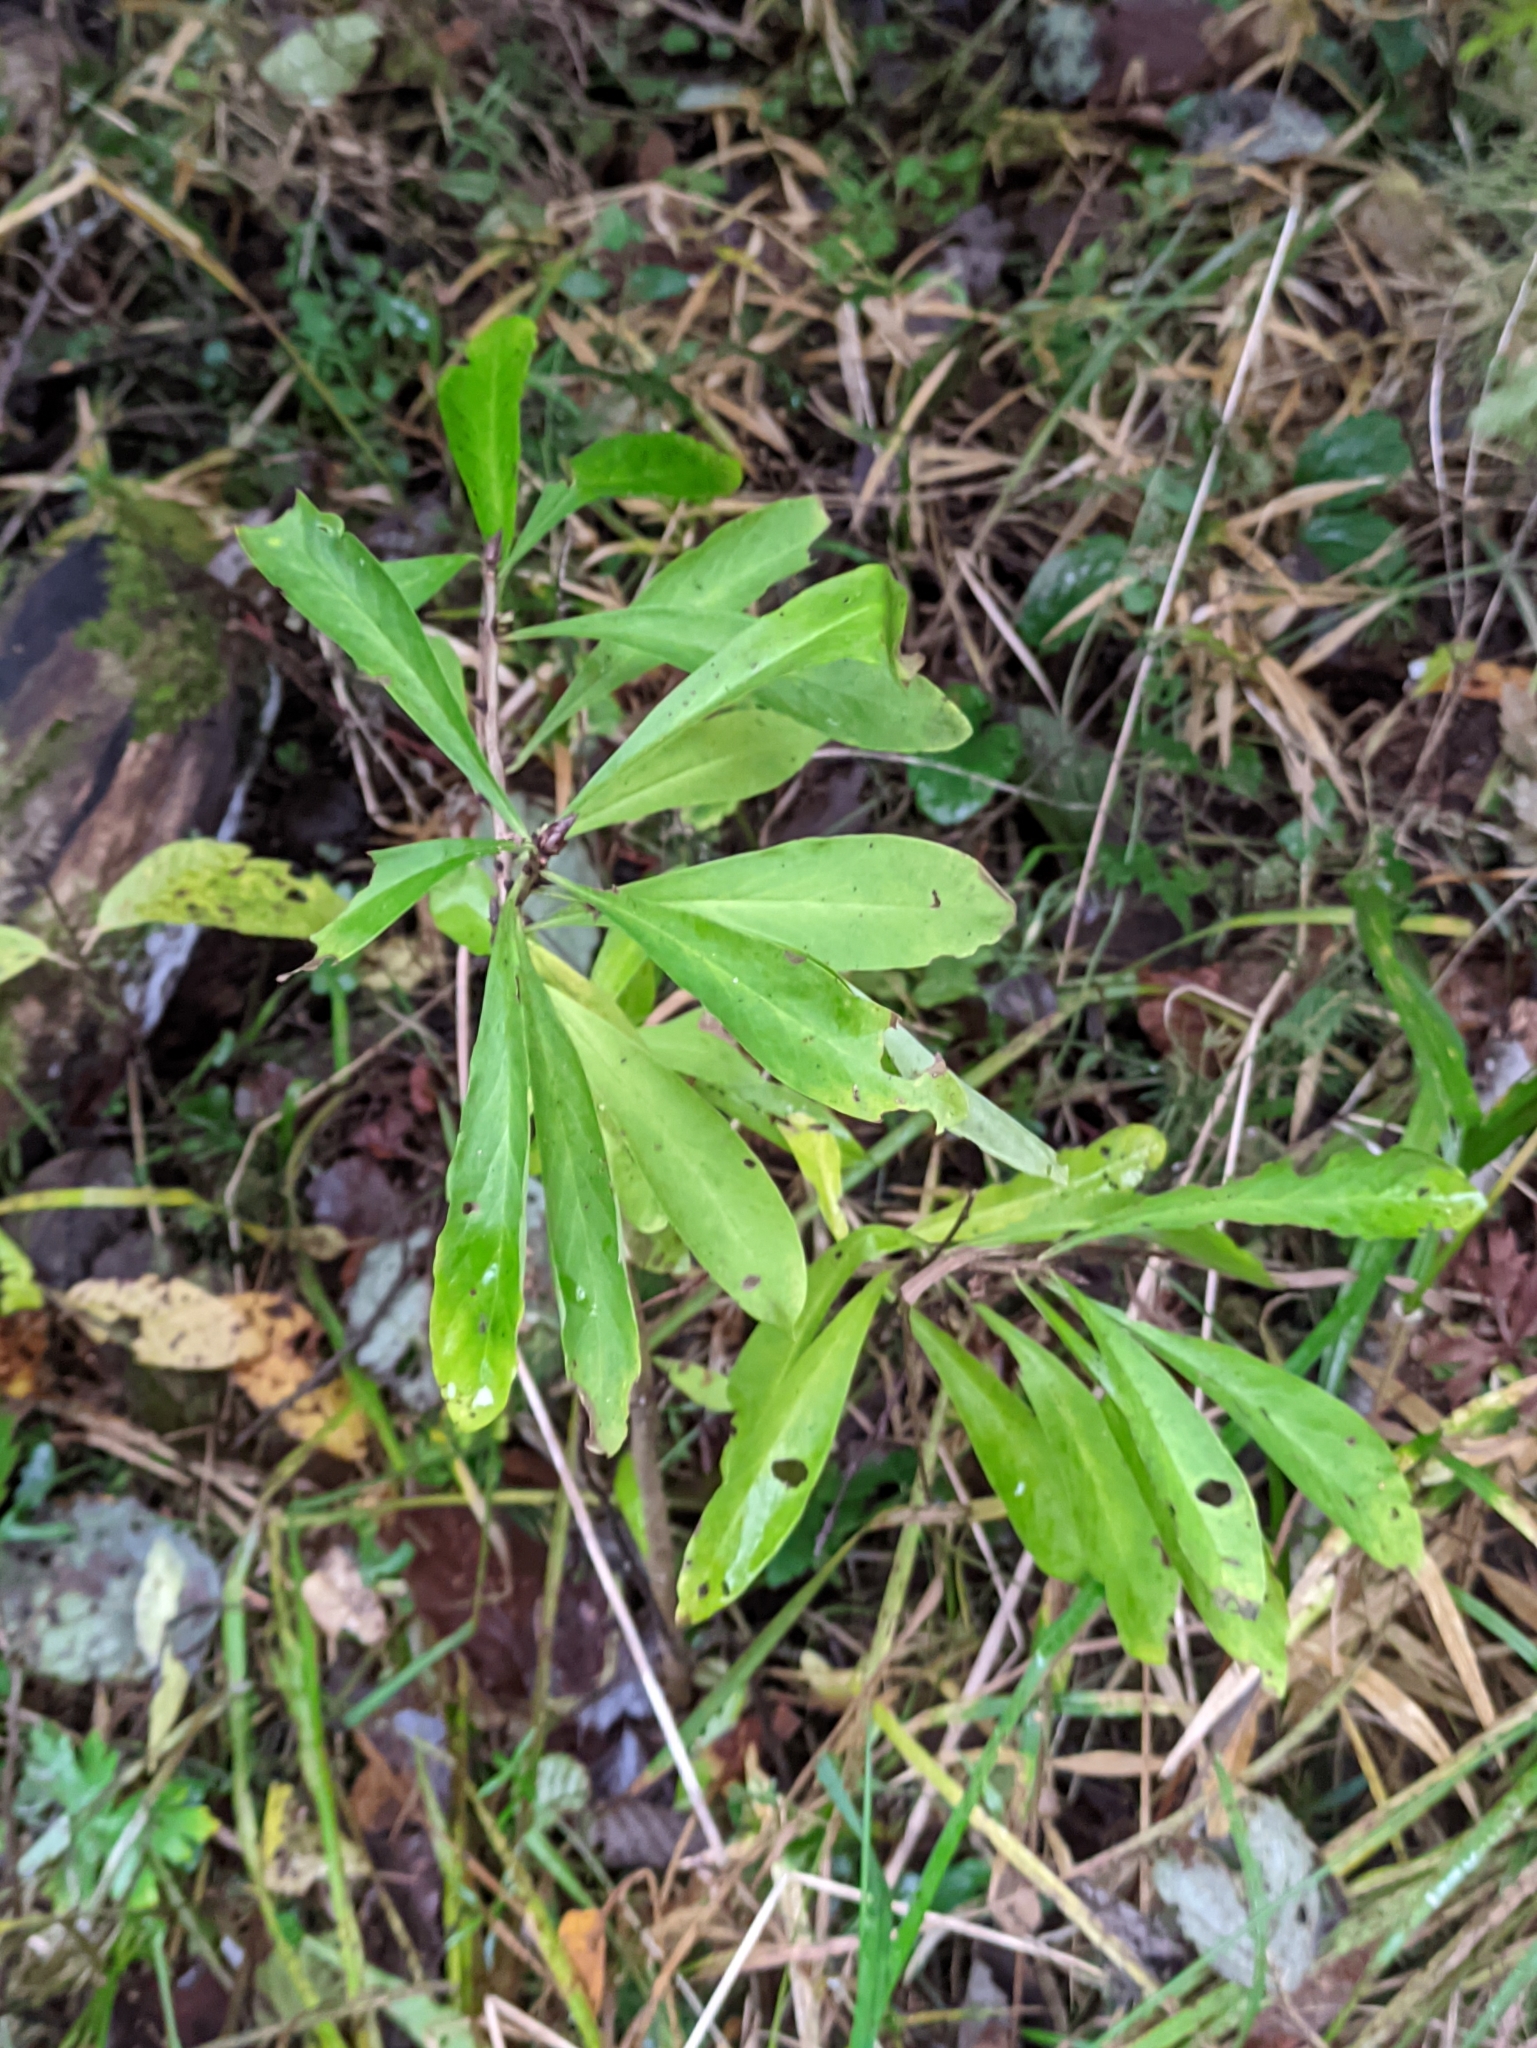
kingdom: Plantae
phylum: Tracheophyta
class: Magnoliopsida
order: Malvales
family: Thymelaeaceae
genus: Daphne
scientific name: Daphne mezereum
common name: Mezereon
